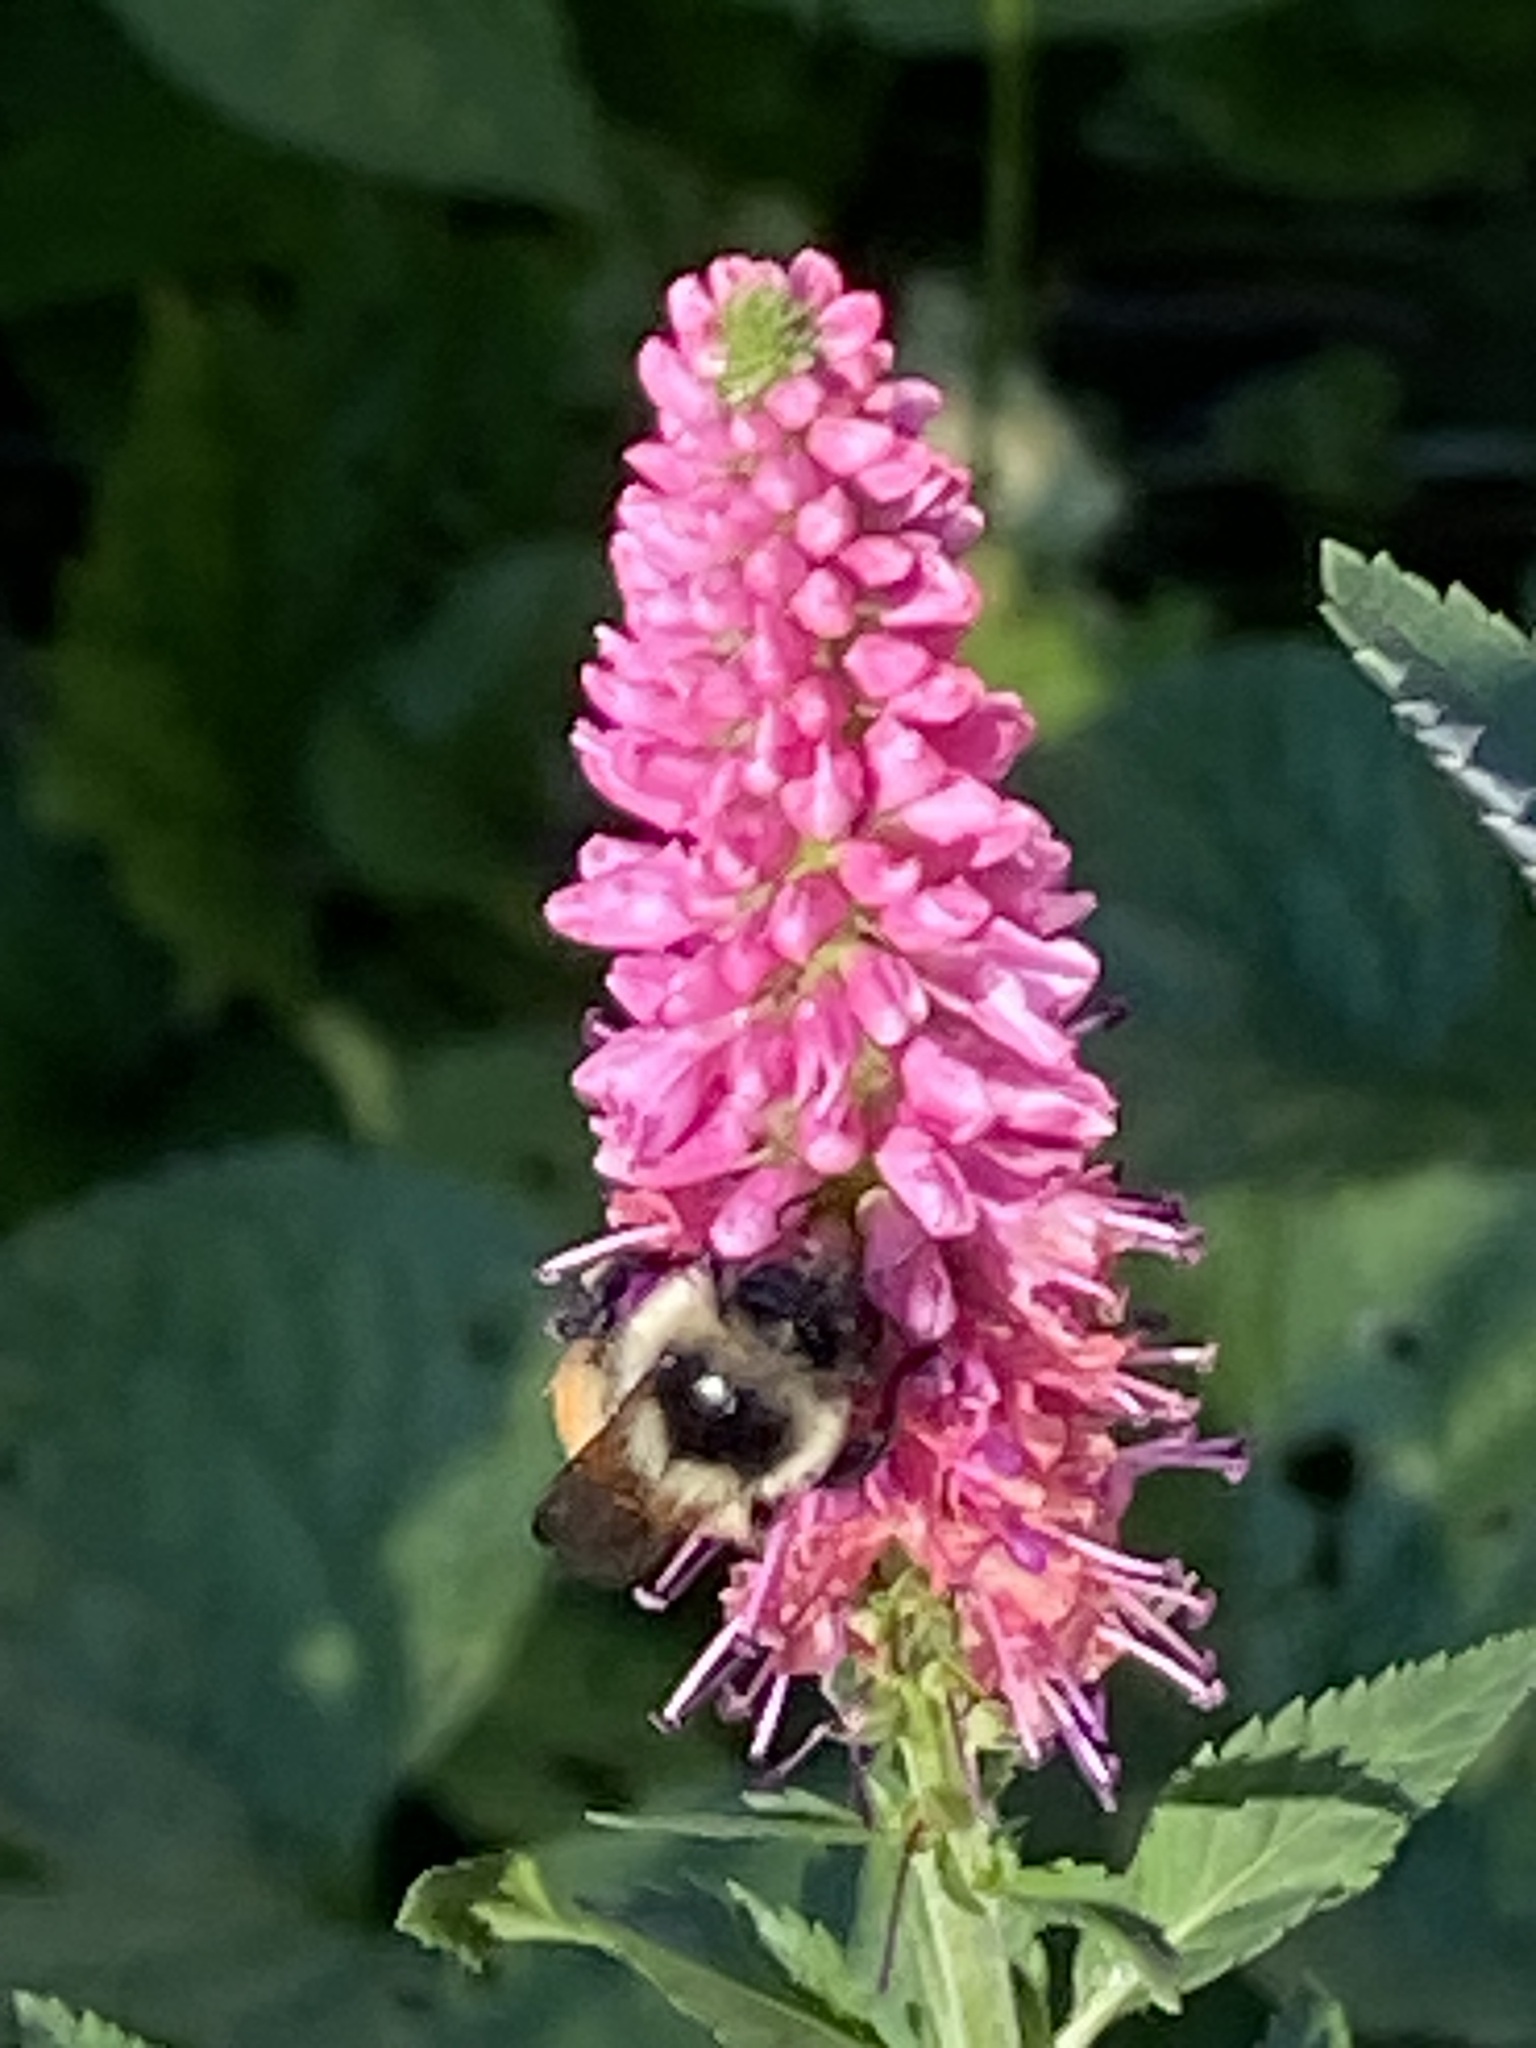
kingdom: Animalia
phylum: Arthropoda
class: Insecta
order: Hymenoptera
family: Apidae
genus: Bombus
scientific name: Bombus ternarius
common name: Tri-colored bumble bee
